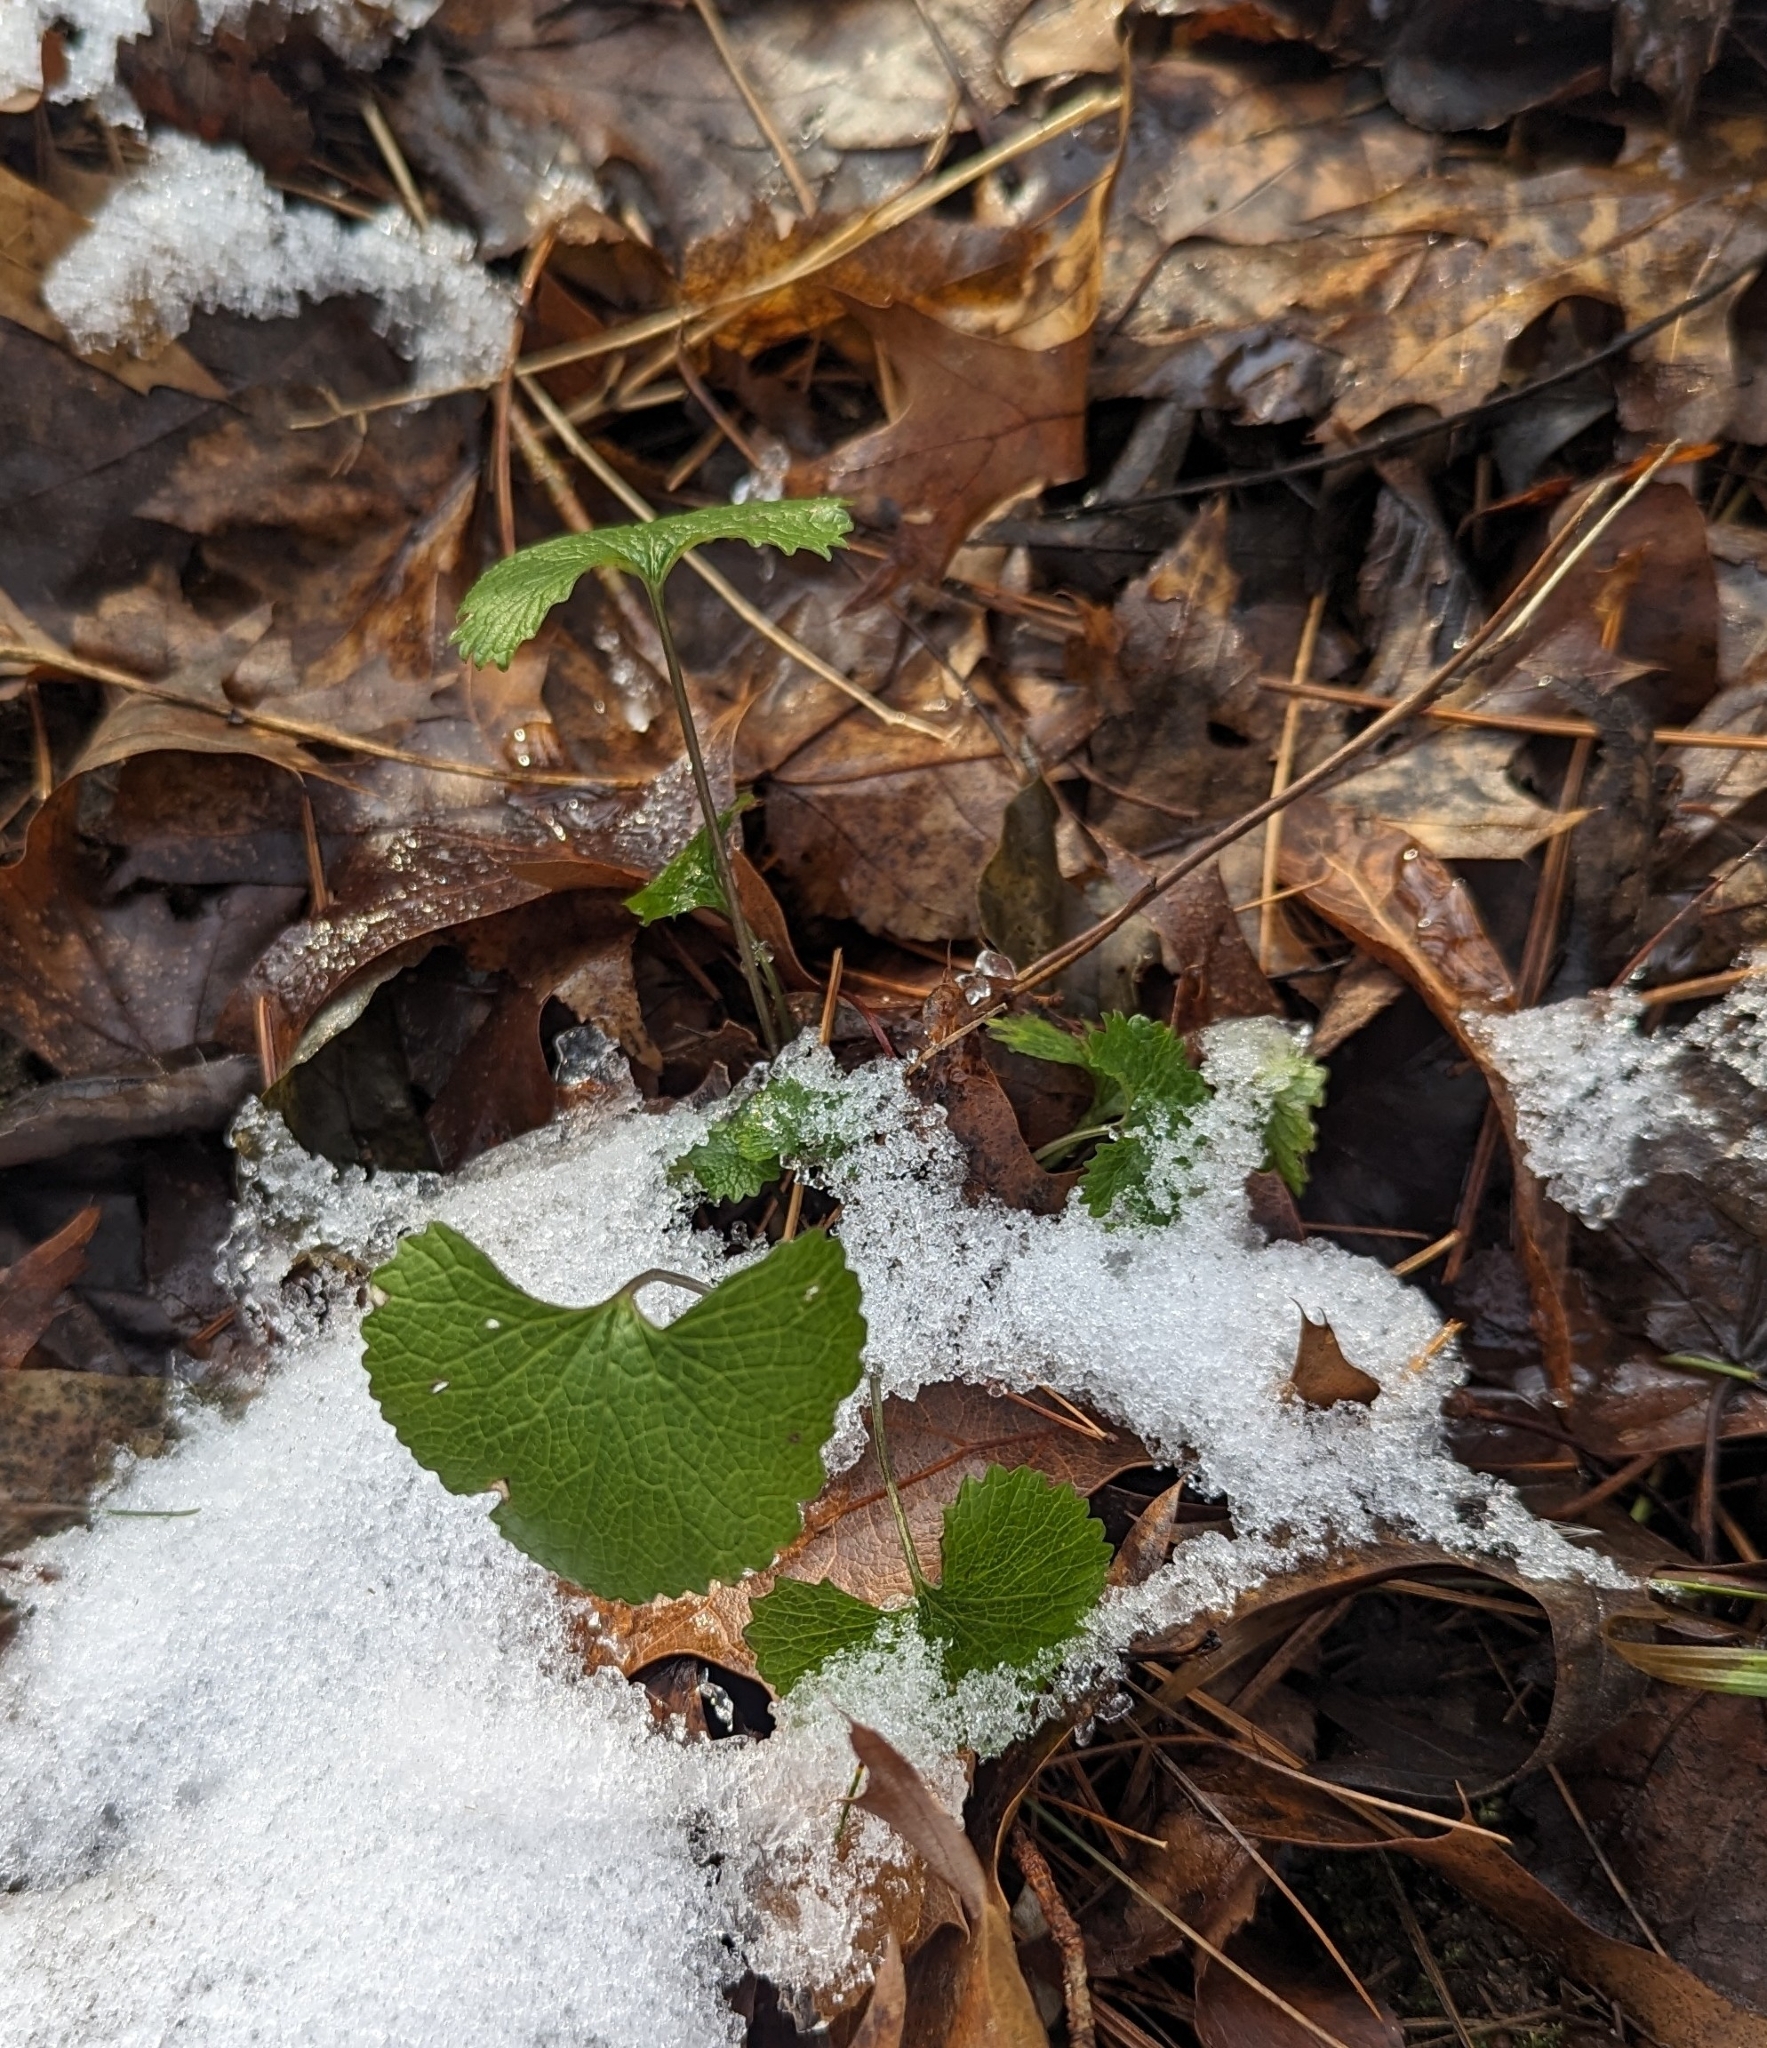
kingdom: Plantae
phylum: Tracheophyta
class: Magnoliopsida
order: Brassicales
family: Brassicaceae
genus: Alliaria
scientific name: Alliaria petiolata
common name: Garlic mustard
